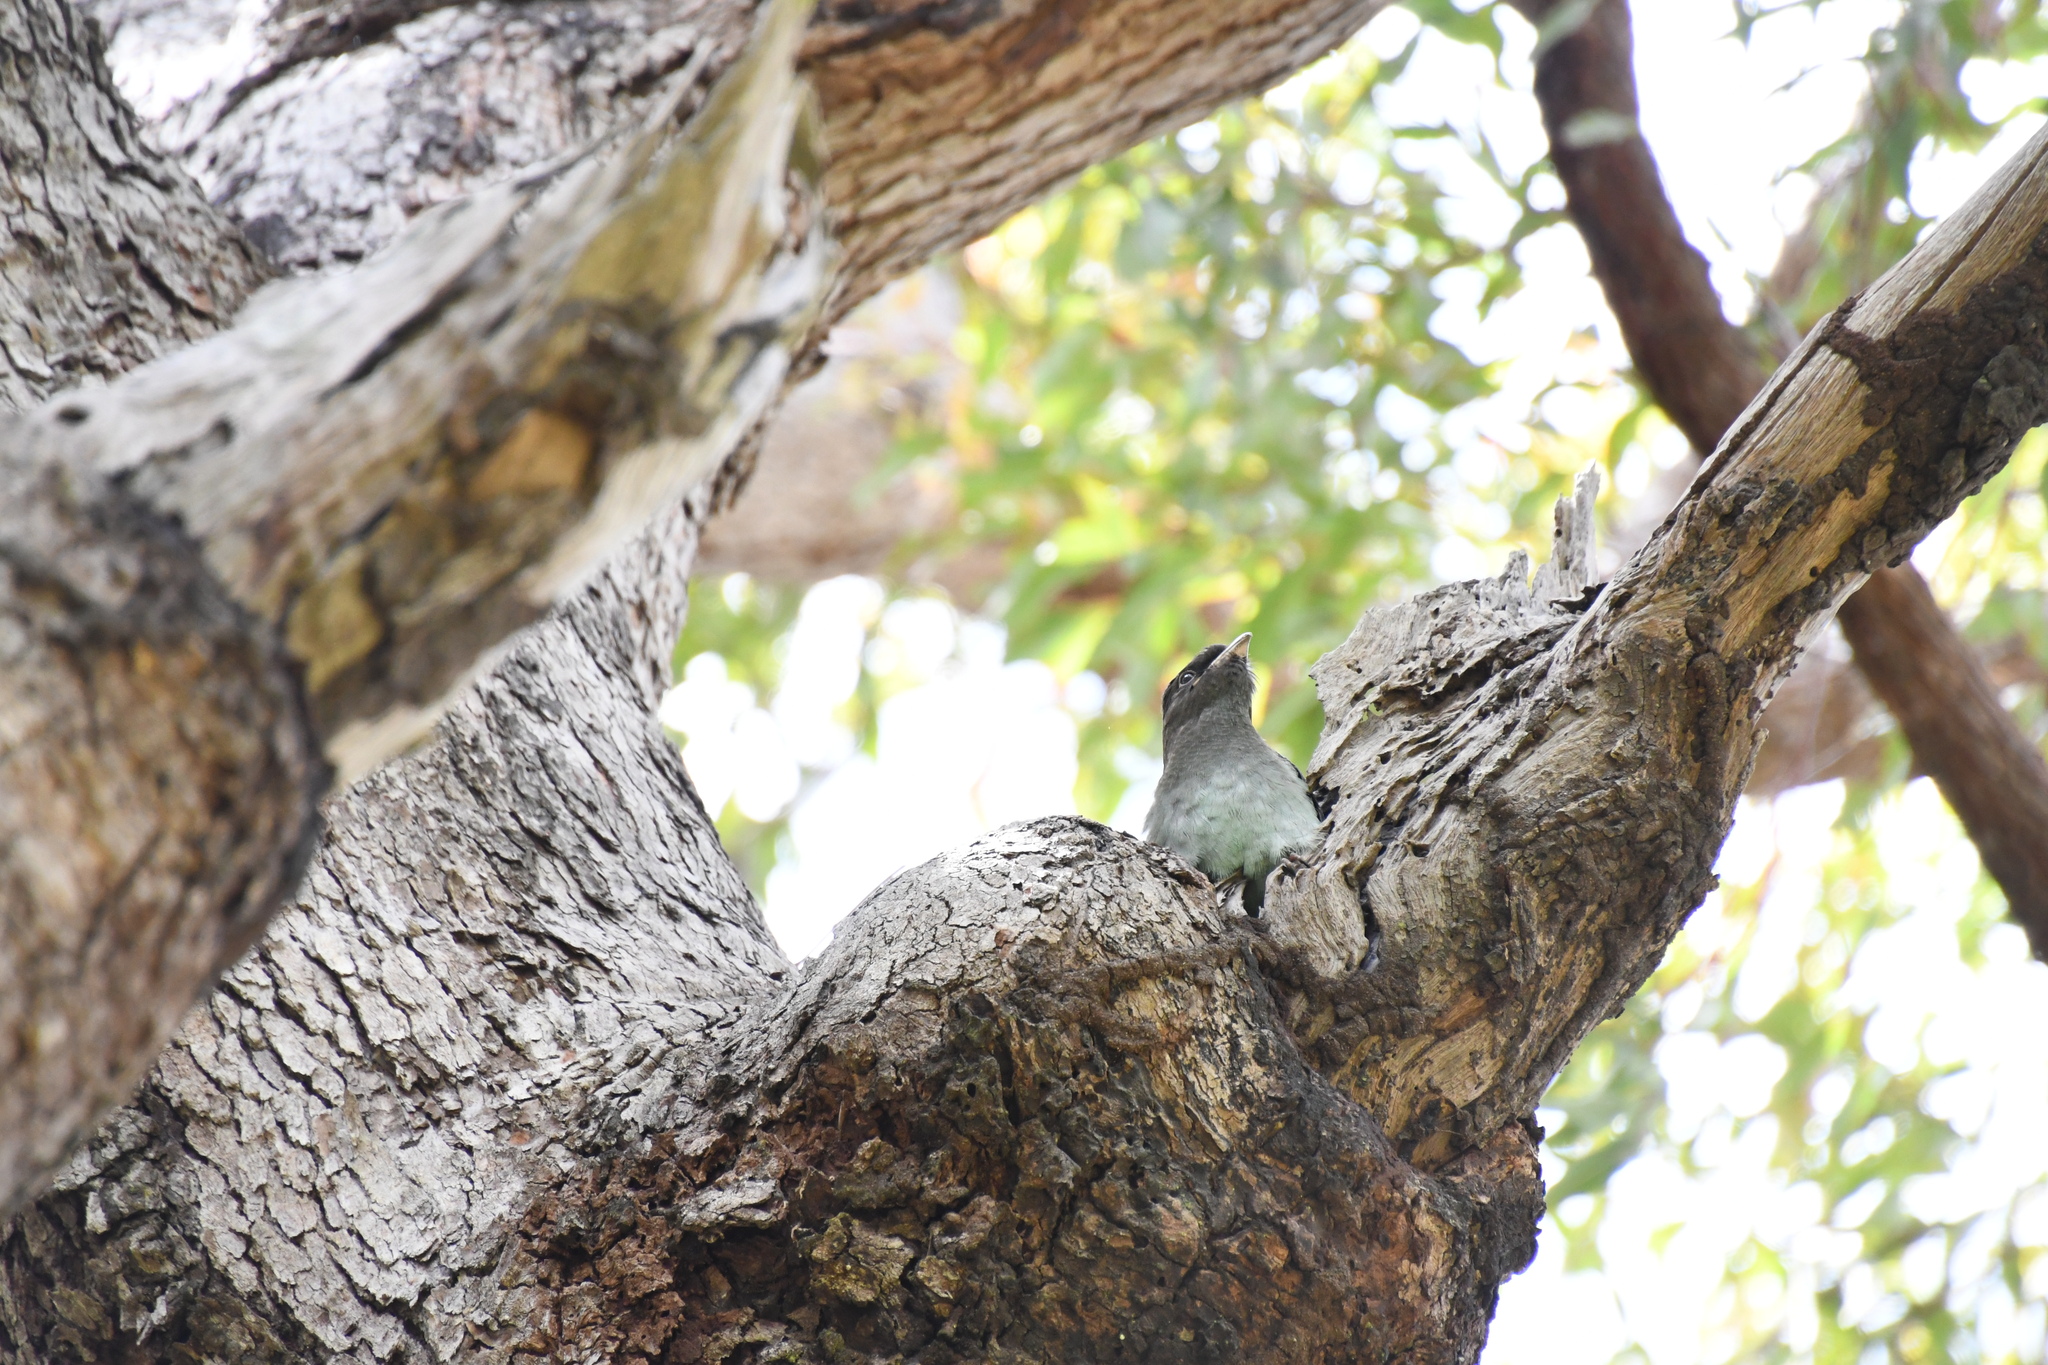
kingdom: Animalia
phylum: Chordata
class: Aves
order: Coraciiformes
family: Coraciidae
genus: Eurystomus
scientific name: Eurystomus orientalis
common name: Oriental dollarbird
